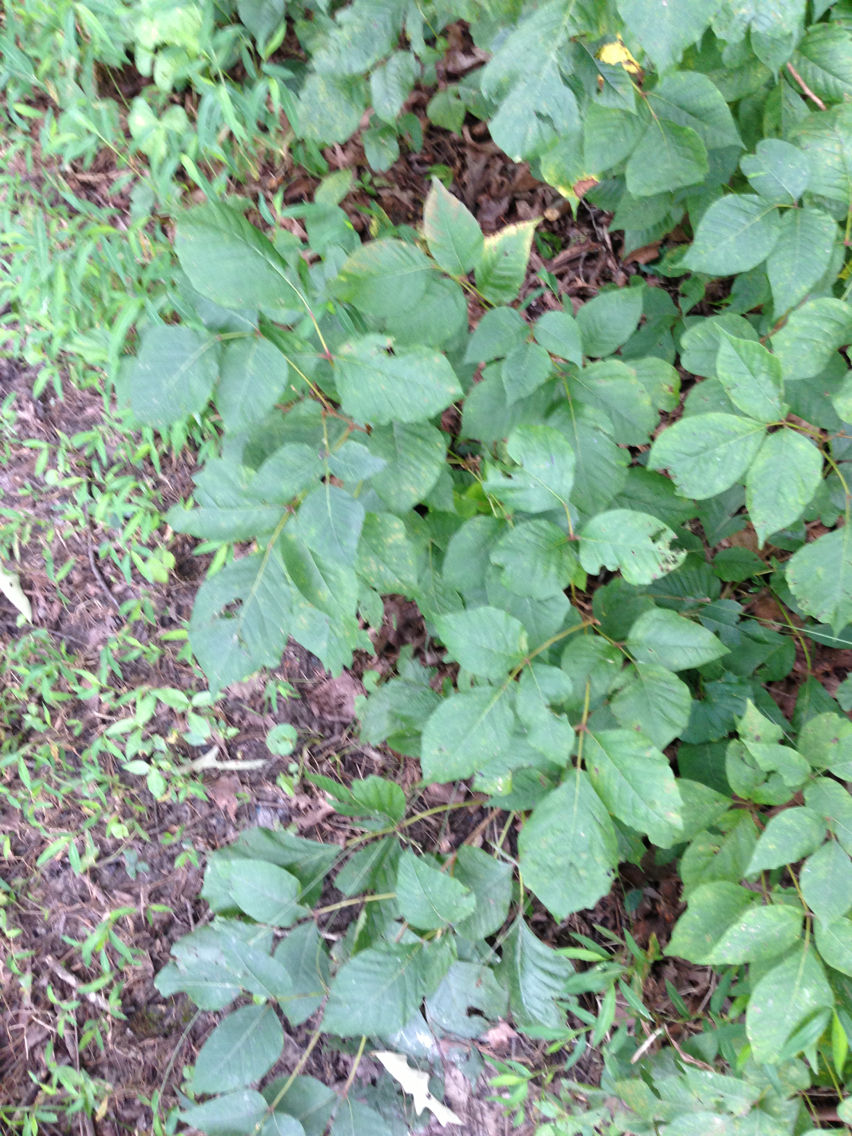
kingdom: Plantae
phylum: Tracheophyta
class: Magnoliopsida
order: Sapindales
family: Anacardiaceae
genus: Toxicodendron
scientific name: Toxicodendron radicans
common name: Poison ivy
